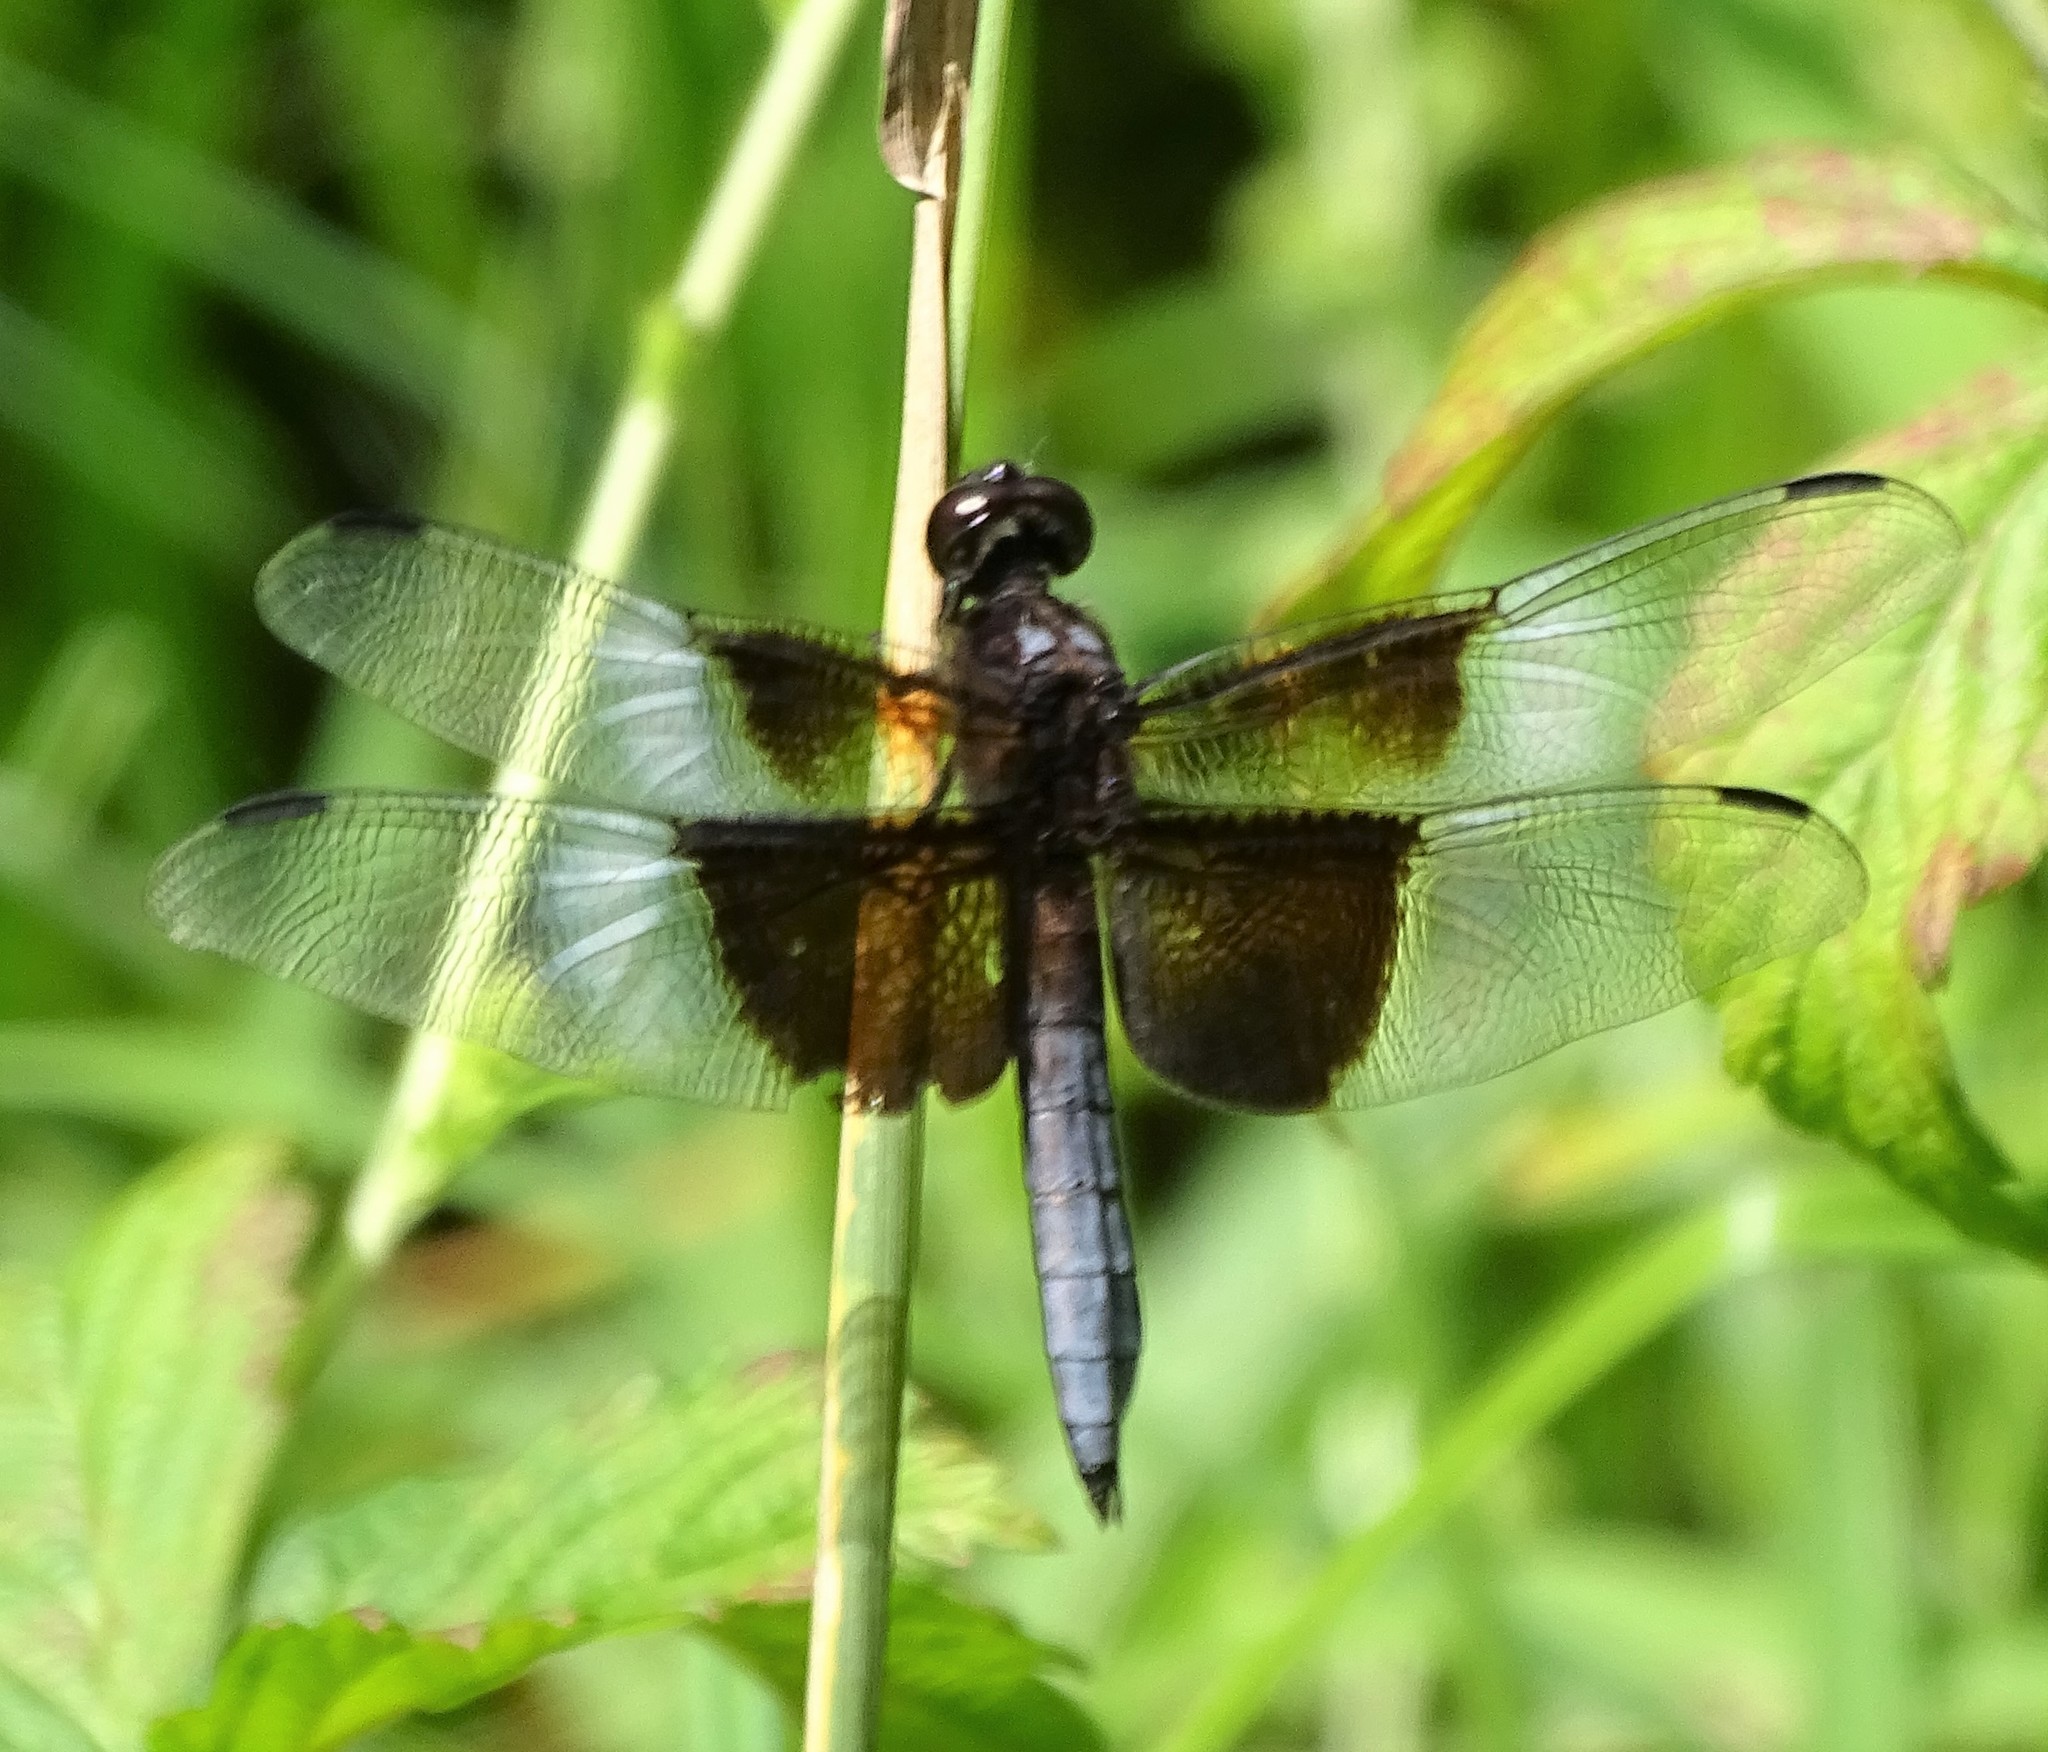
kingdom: Animalia
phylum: Arthropoda
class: Insecta
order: Odonata
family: Libellulidae
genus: Libellula
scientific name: Libellula luctuosa
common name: Widow skimmer
